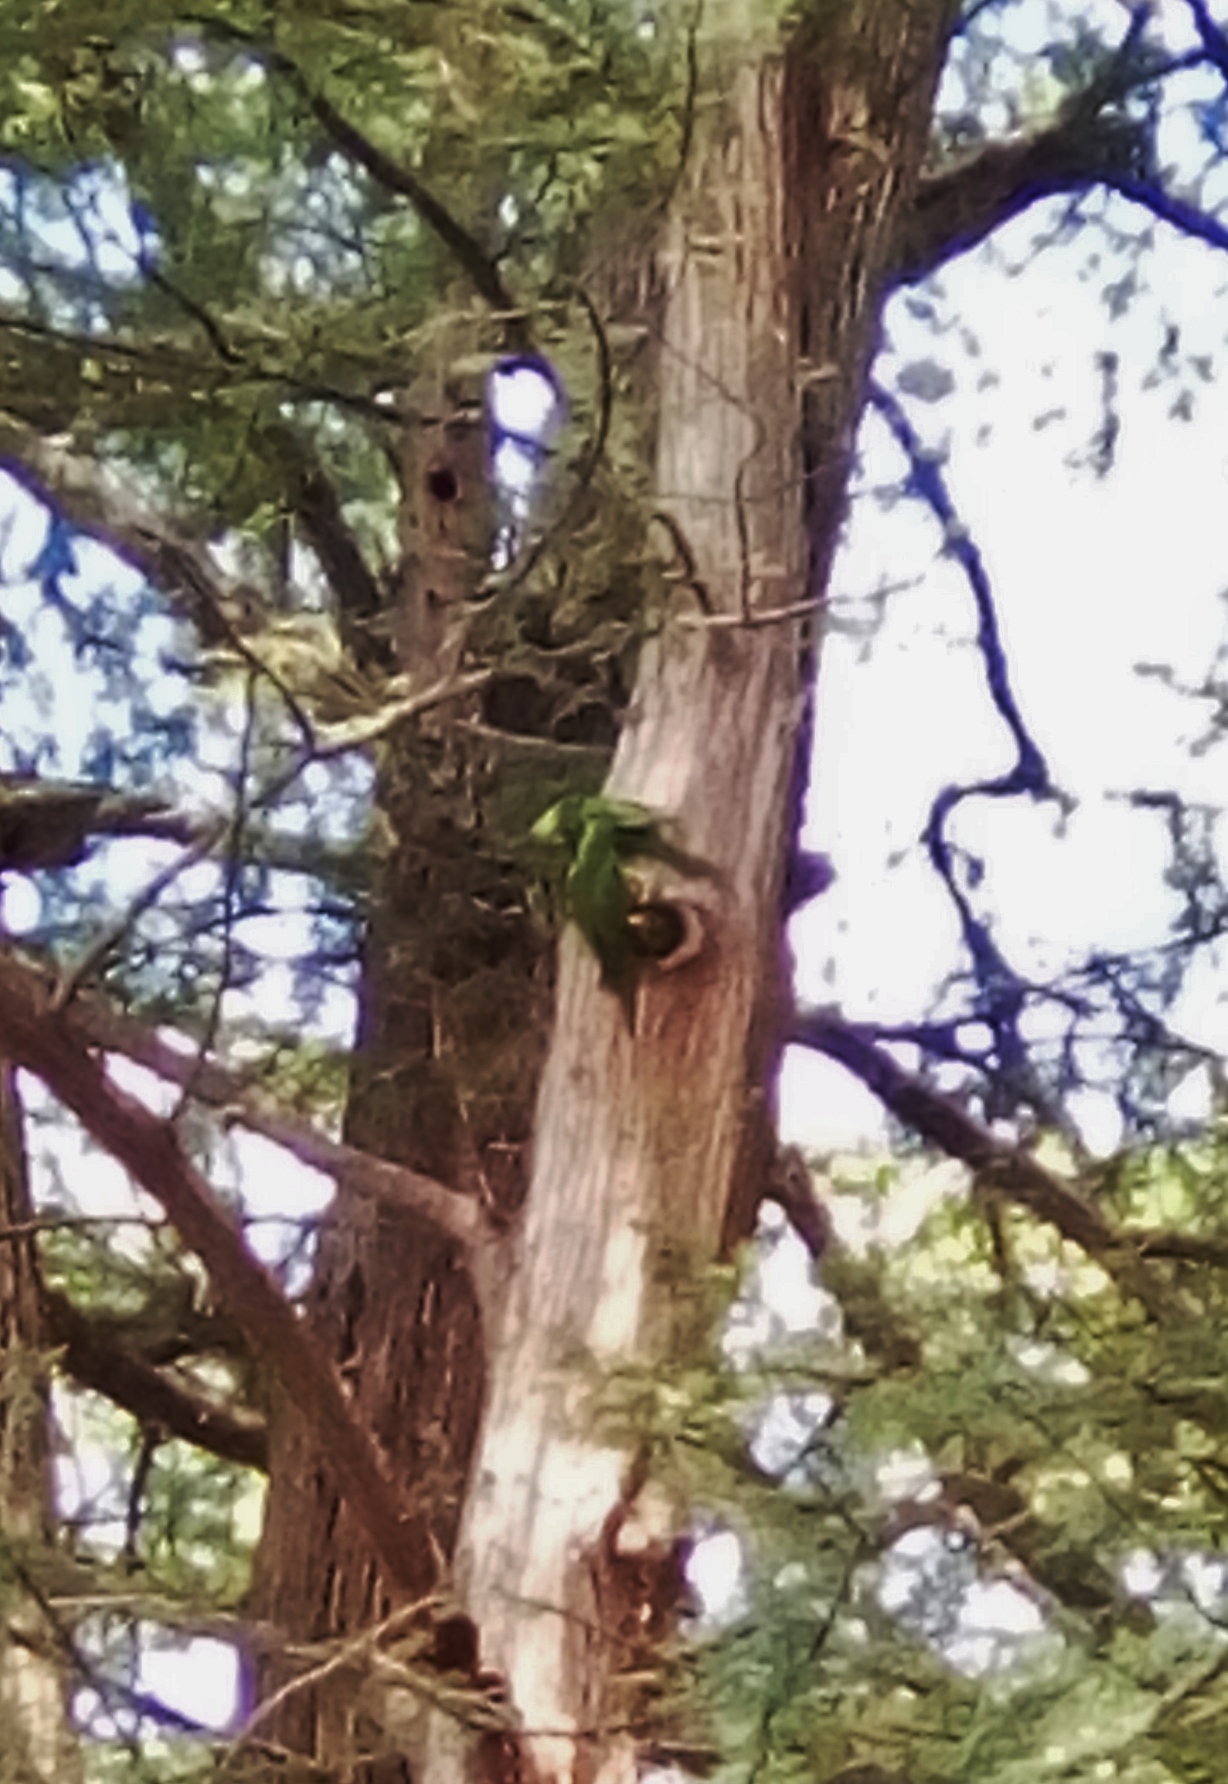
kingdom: Animalia
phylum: Chordata
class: Aves
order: Psittaciformes
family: Psittacidae
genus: Aratinga
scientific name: Aratinga holochlora
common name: Green parakeet
